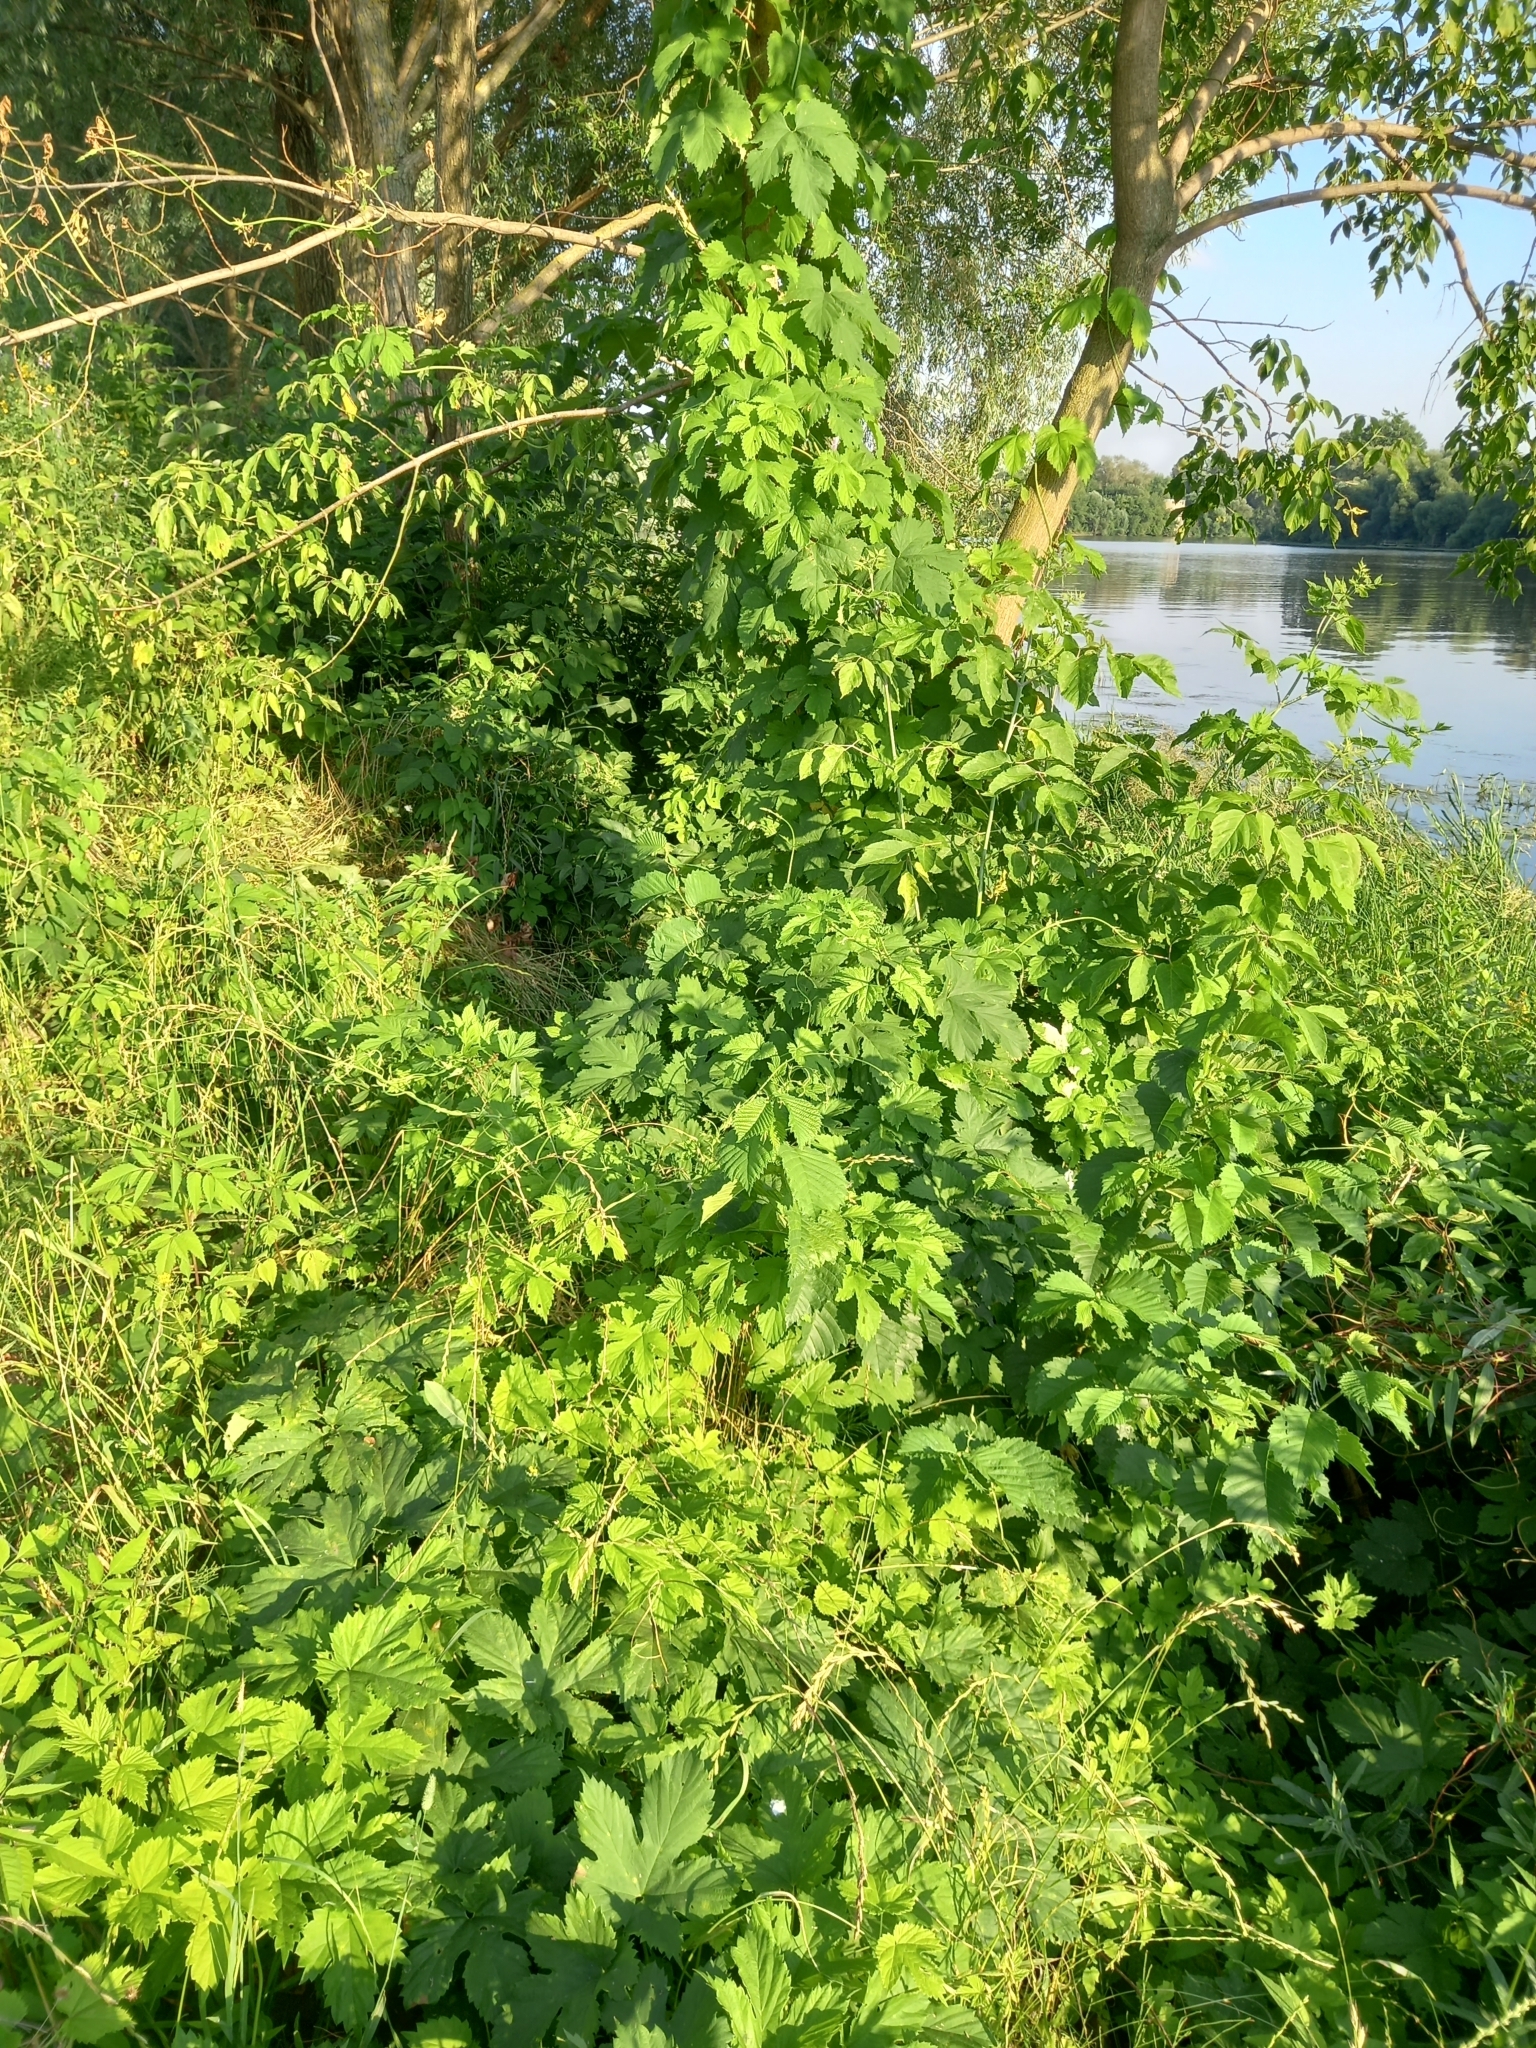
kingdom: Plantae
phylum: Tracheophyta
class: Magnoliopsida
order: Rosales
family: Cannabaceae
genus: Humulus
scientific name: Humulus lupulus
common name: Hop
